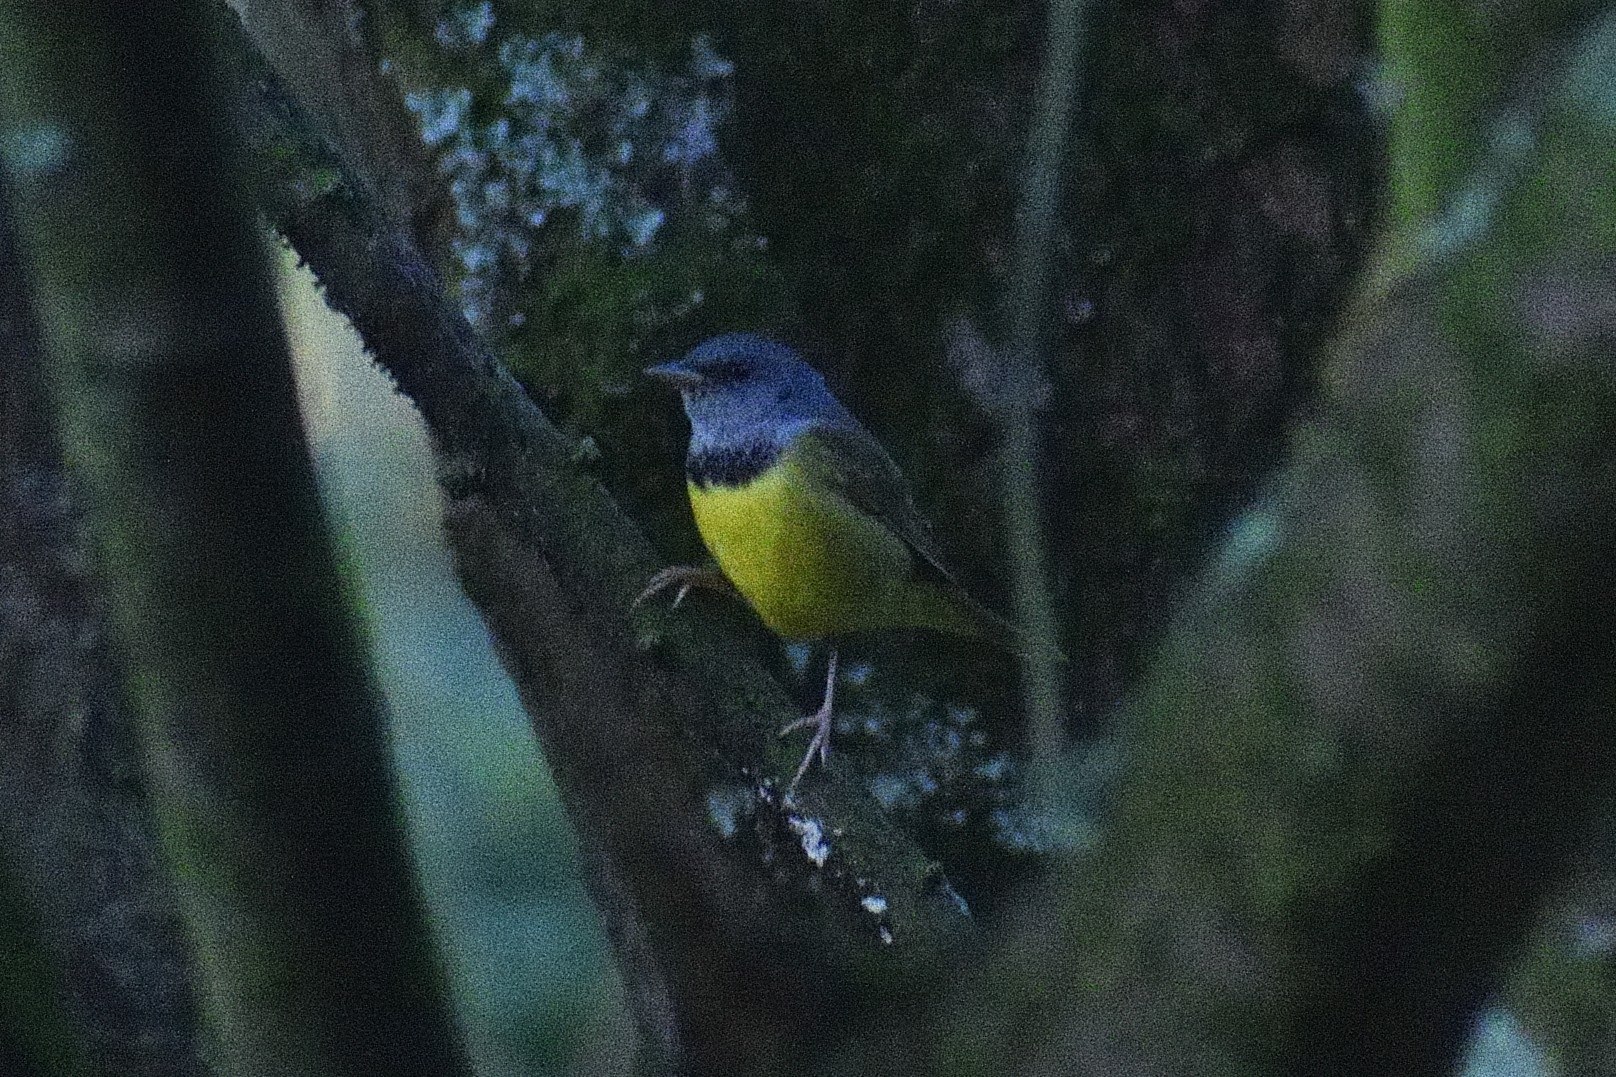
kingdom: Animalia
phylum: Chordata
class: Aves
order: Passeriformes
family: Parulidae
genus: Geothlypis
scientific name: Geothlypis philadelphia
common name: Mourning warbler
